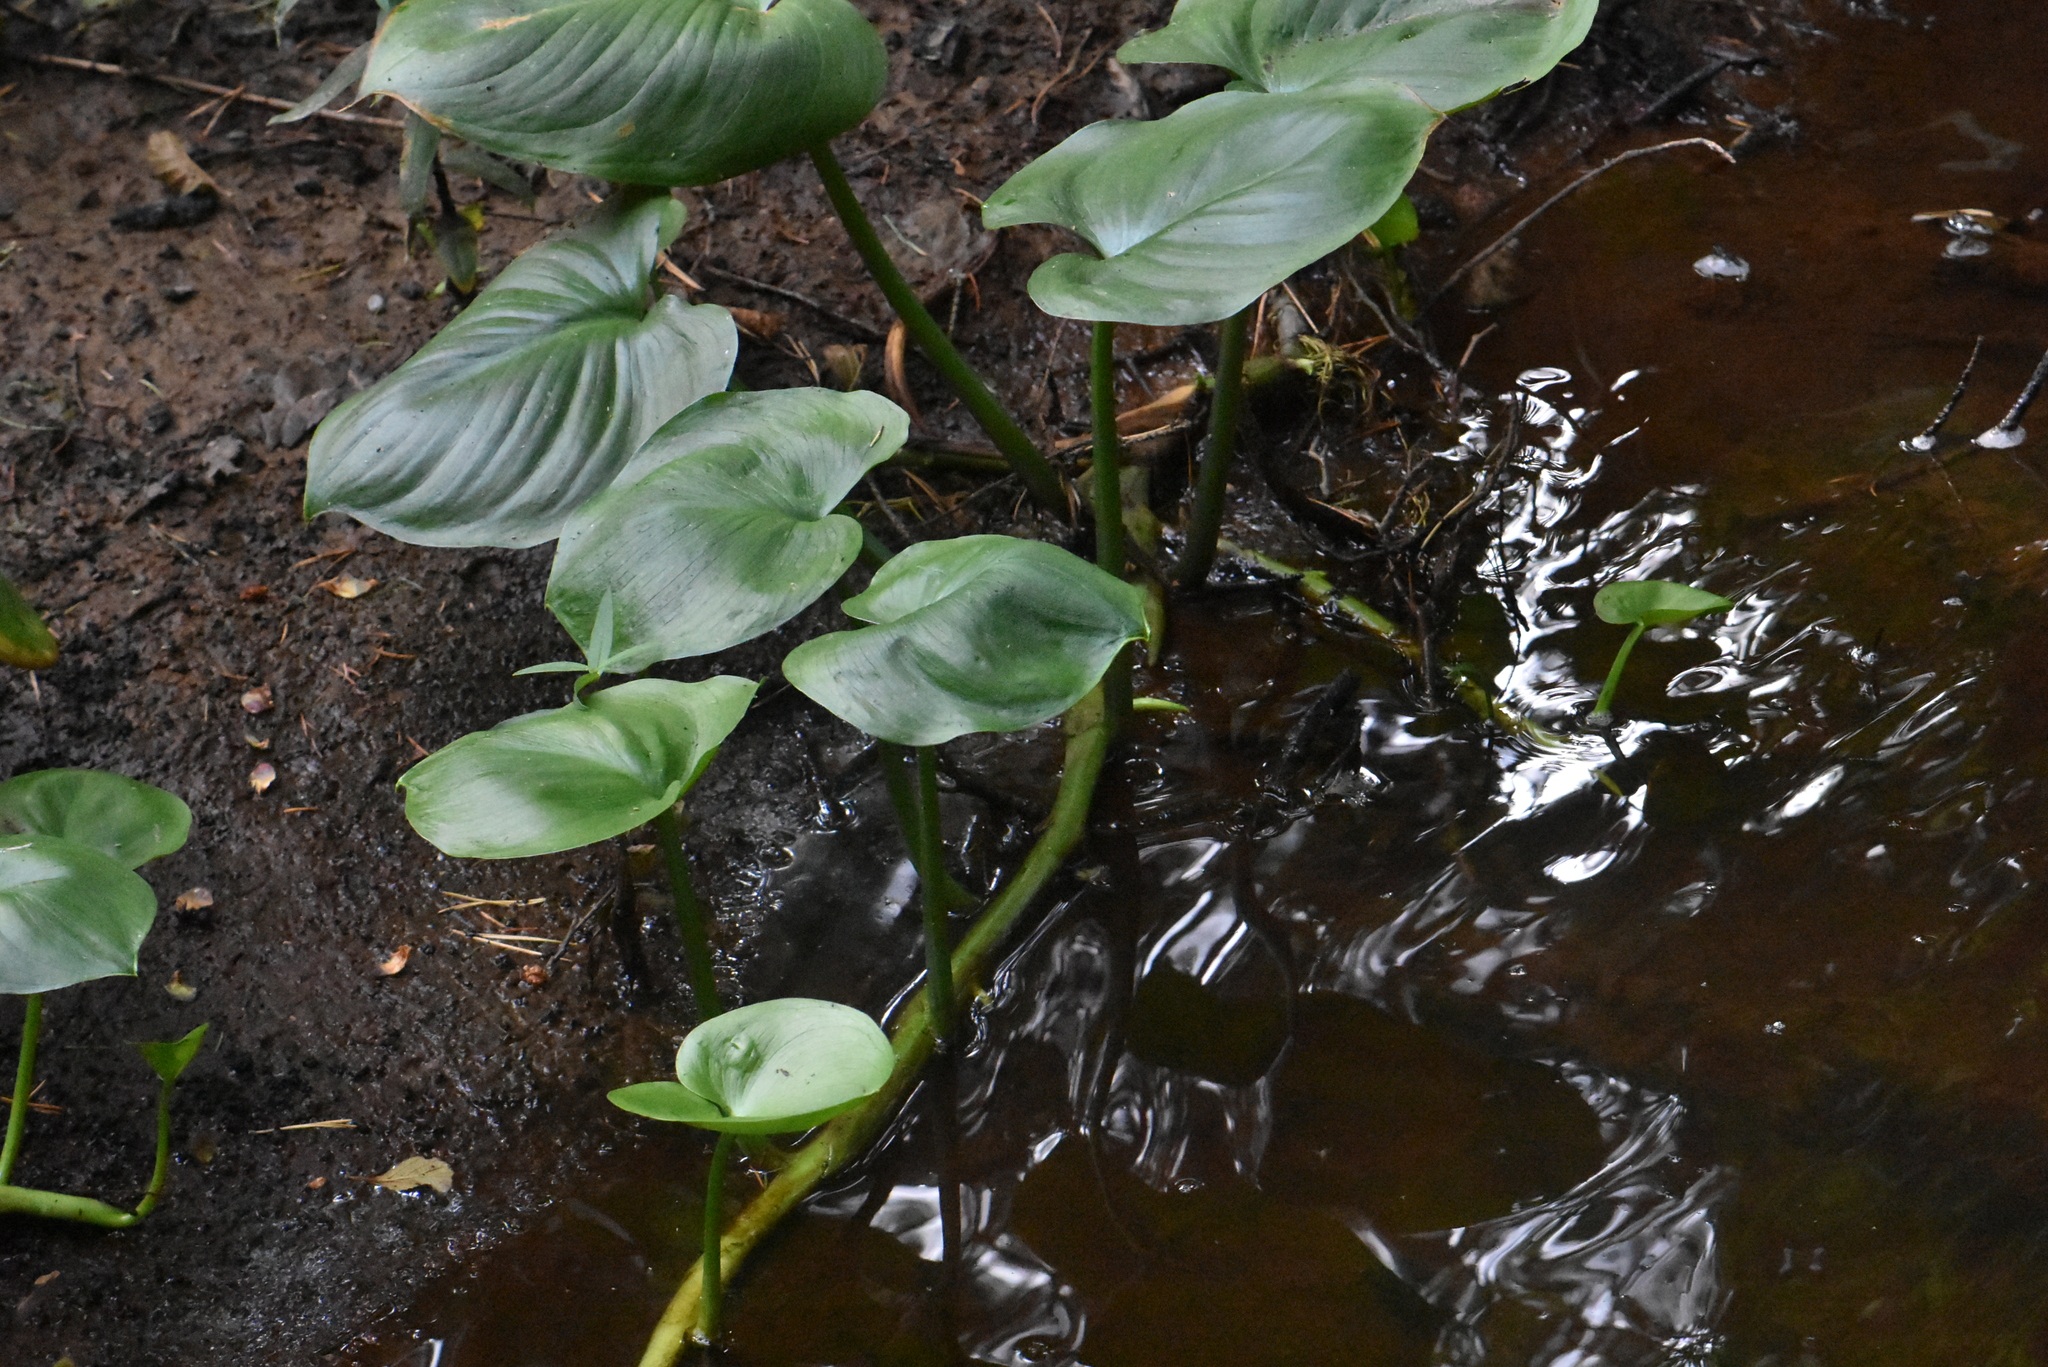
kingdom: Plantae
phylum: Tracheophyta
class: Liliopsida
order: Alismatales
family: Araceae
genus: Calla
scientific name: Calla palustris
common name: Bog arum
